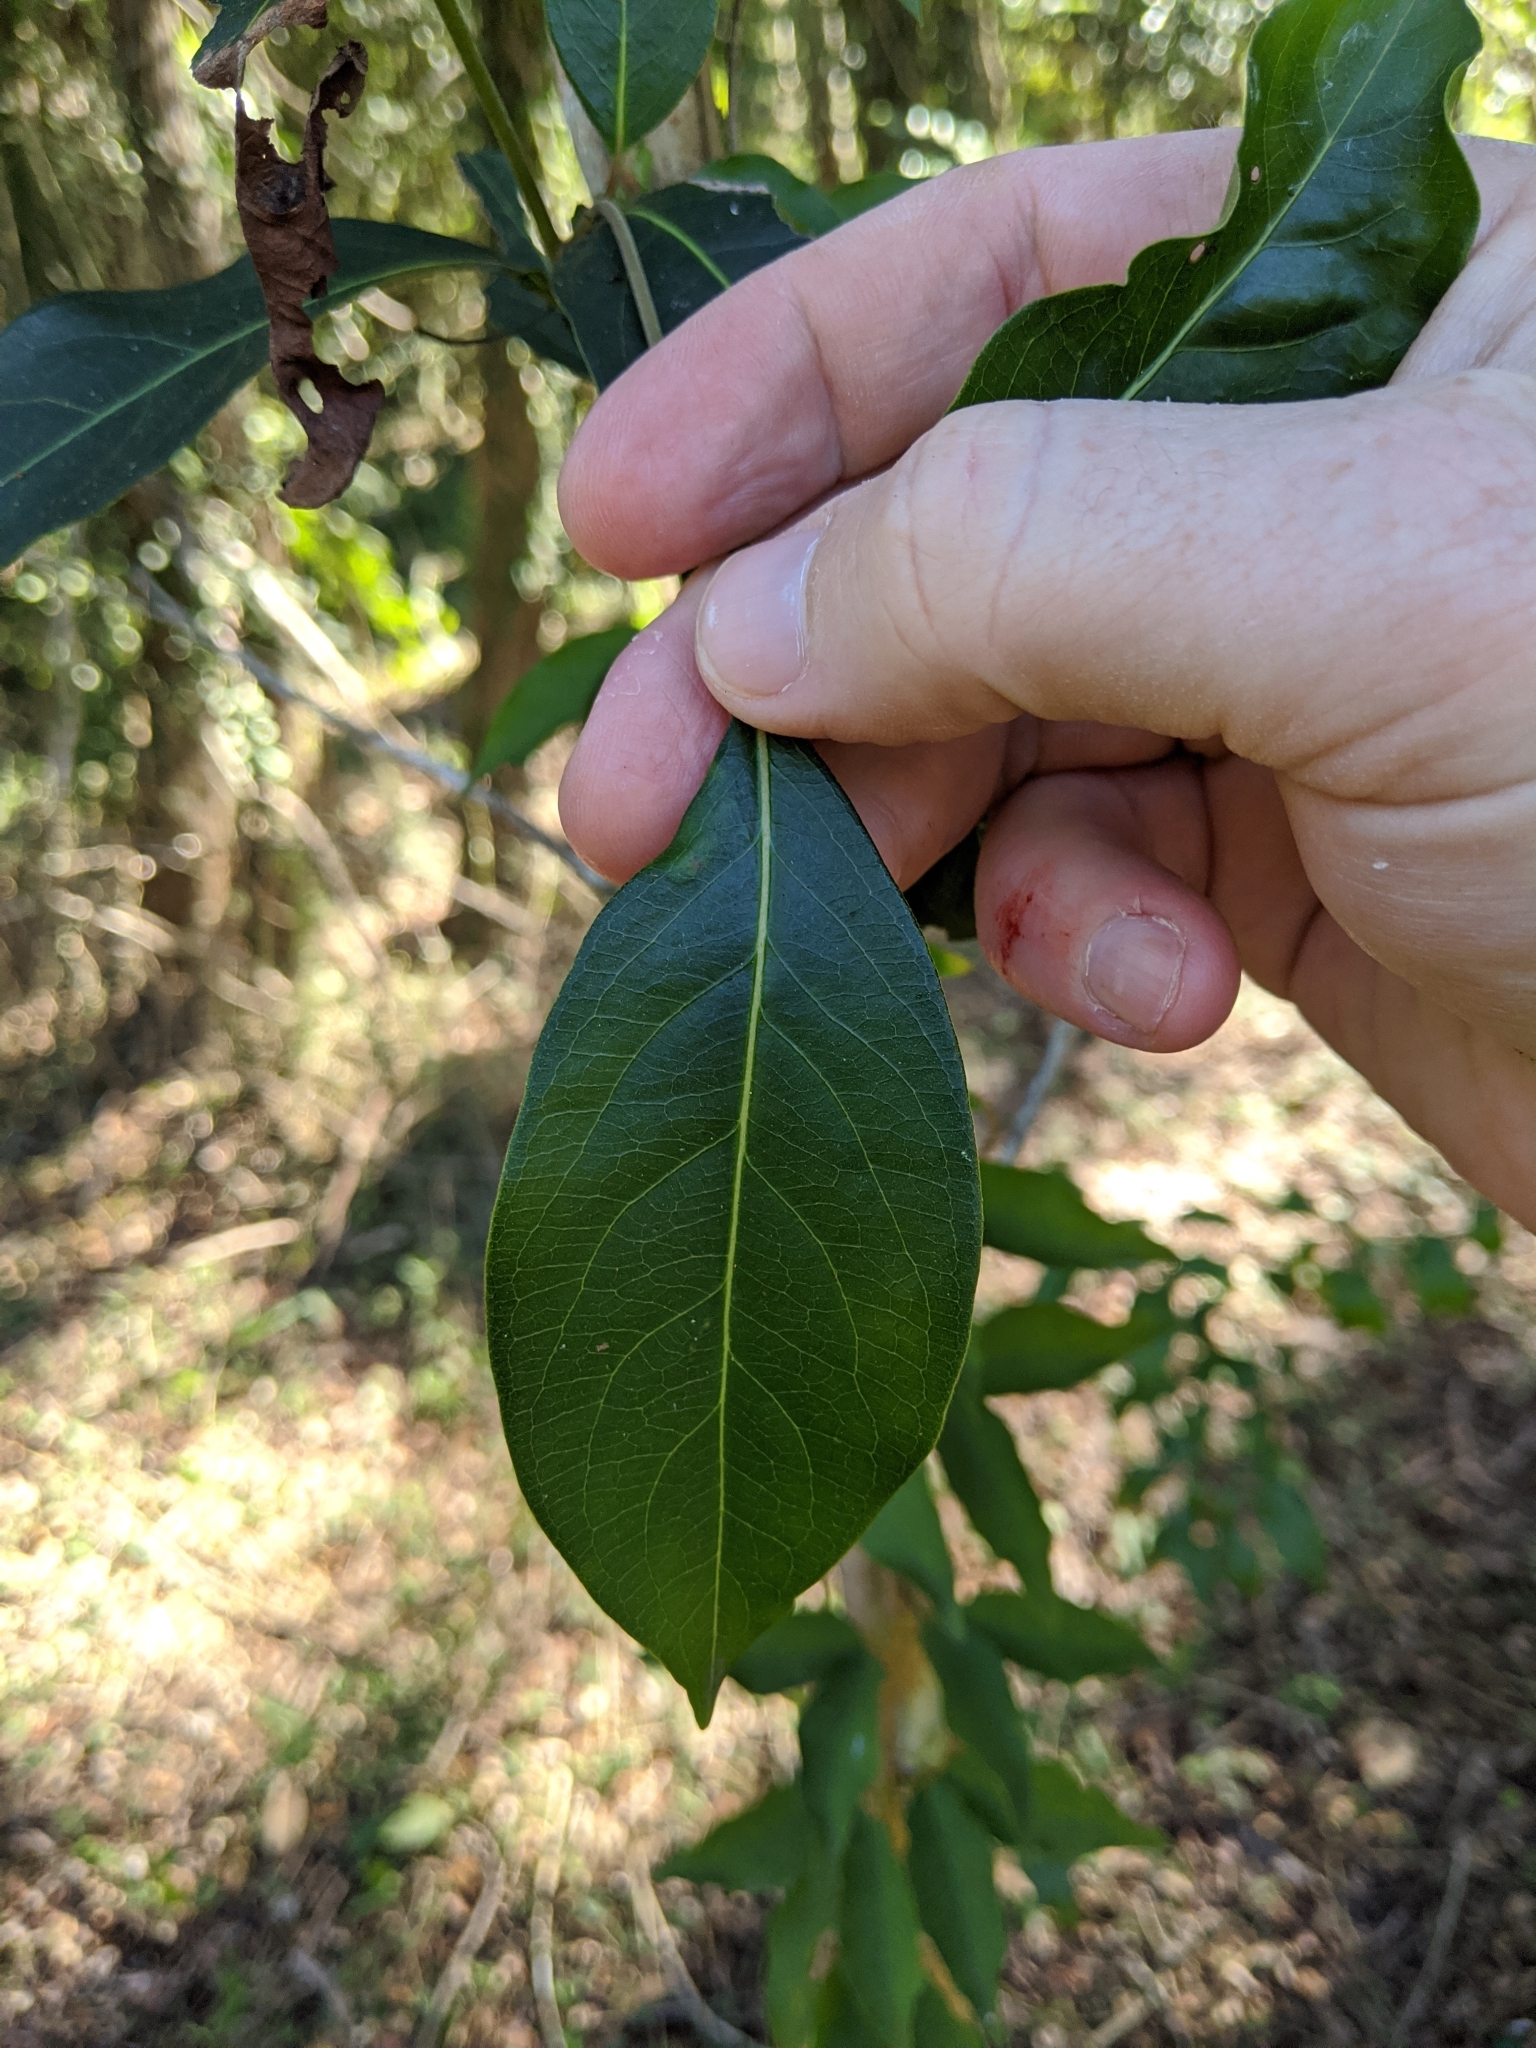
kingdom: Plantae
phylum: Tracheophyta
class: Magnoliopsida
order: Myrtales
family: Myrtaceae
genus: Rhodomyrtus
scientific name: Rhodomyrtus psidioides
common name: Native-guava
